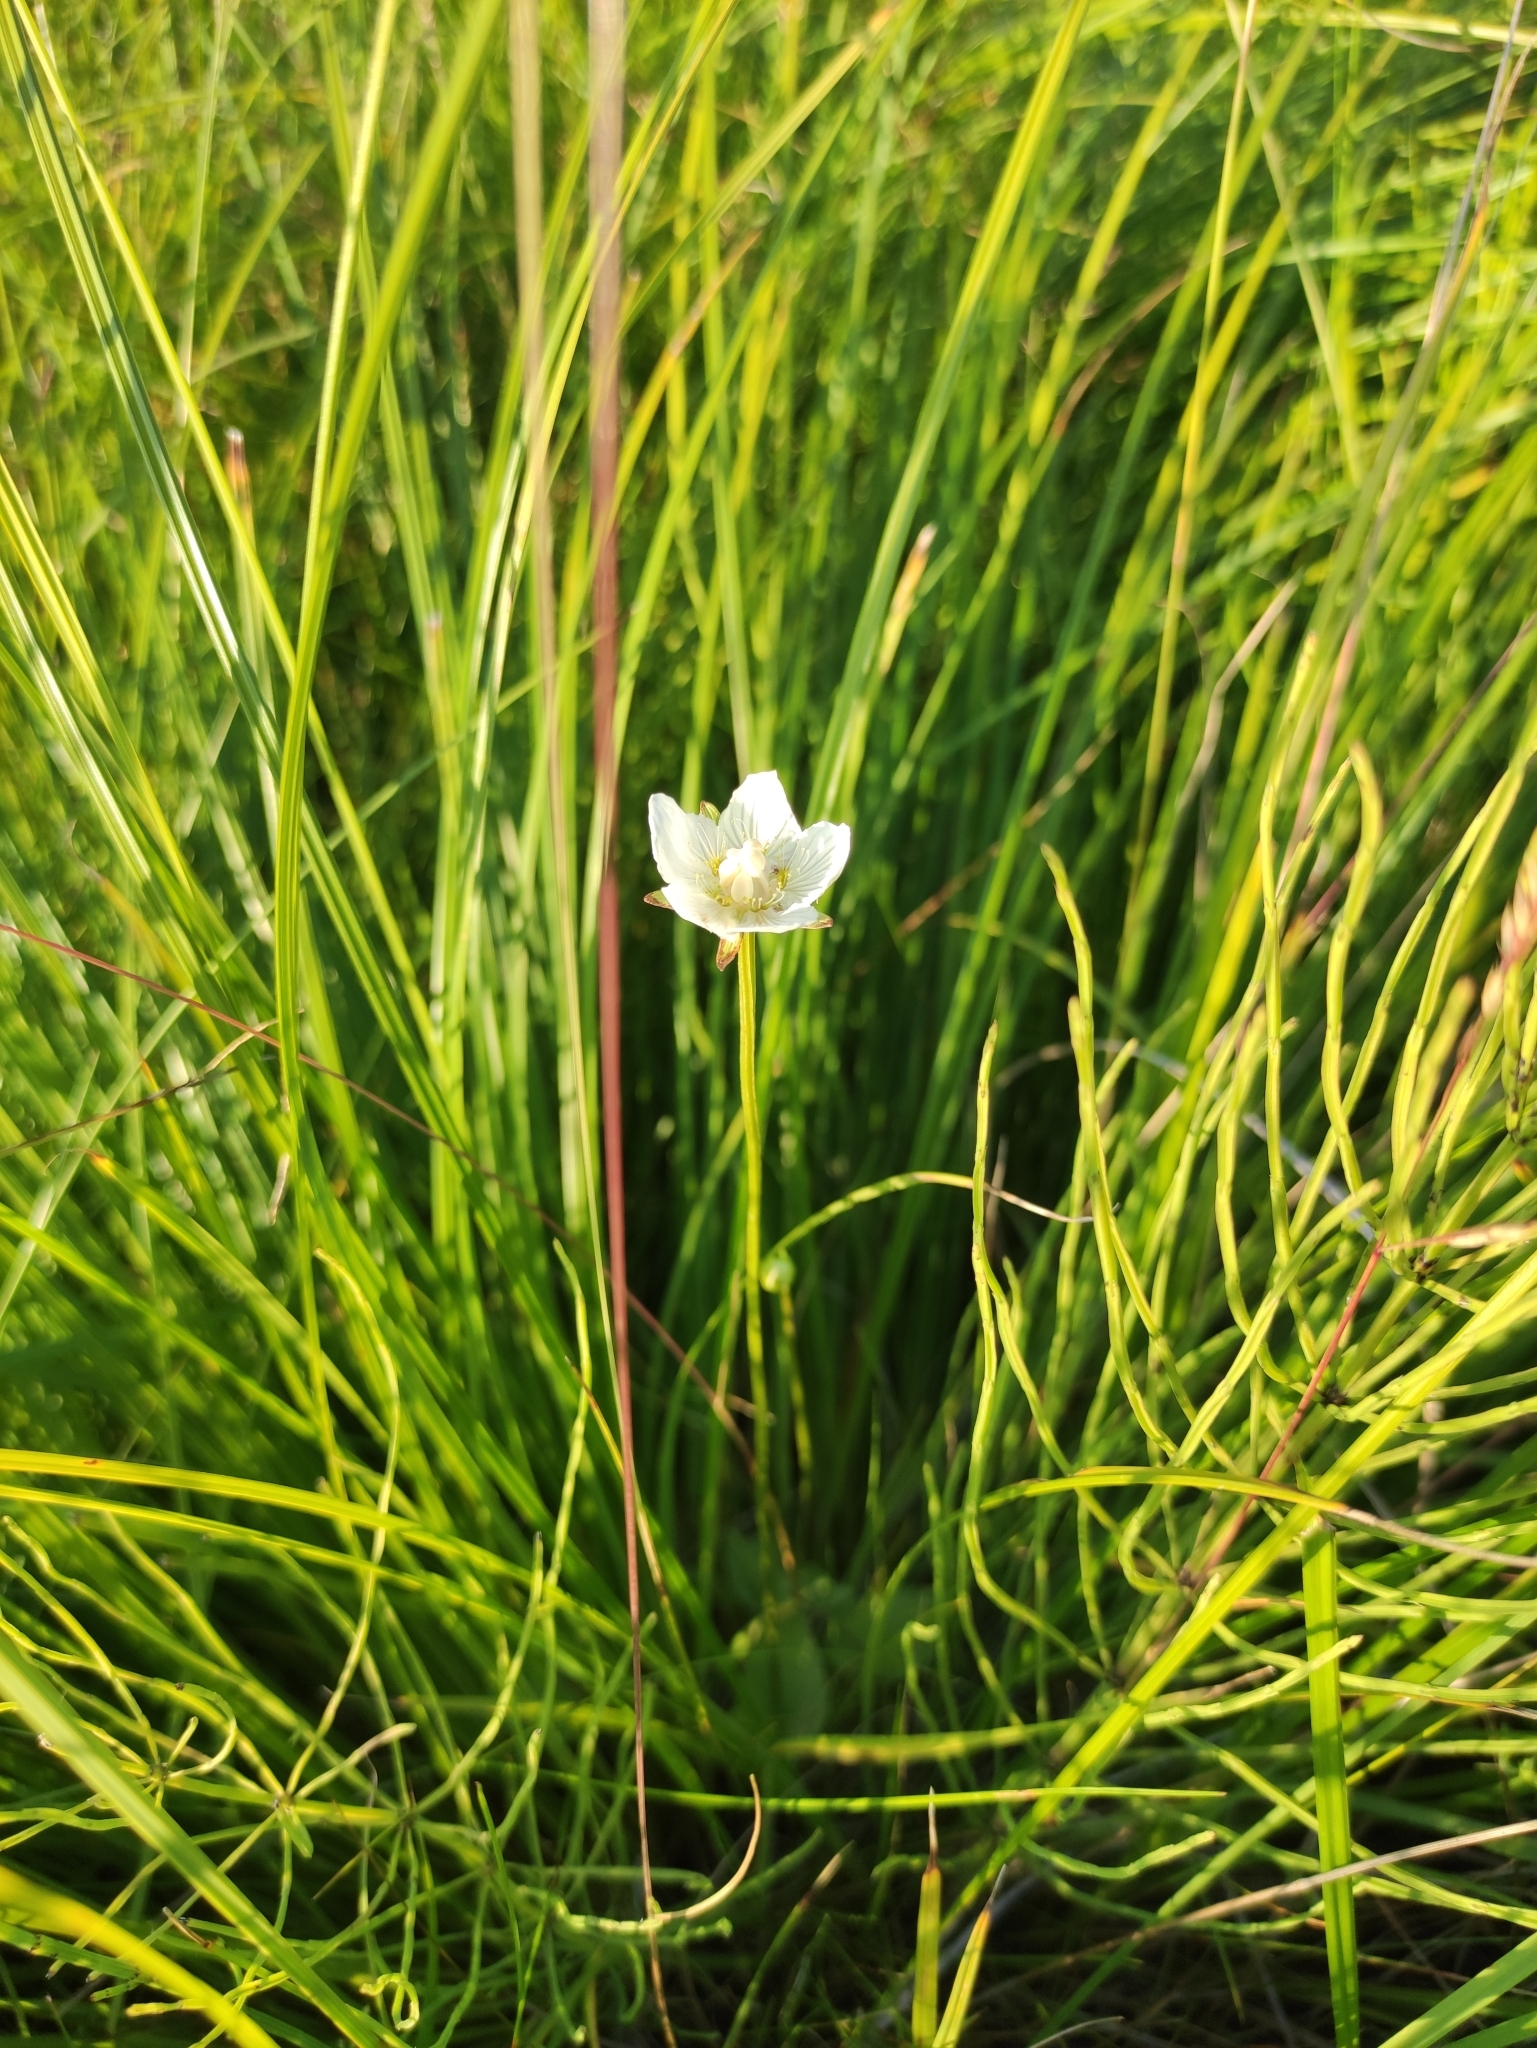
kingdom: Plantae
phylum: Tracheophyta
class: Magnoliopsida
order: Celastrales
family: Parnassiaceae
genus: Parnassia
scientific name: Parnassia palustris
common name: Grass-of-parnassus
